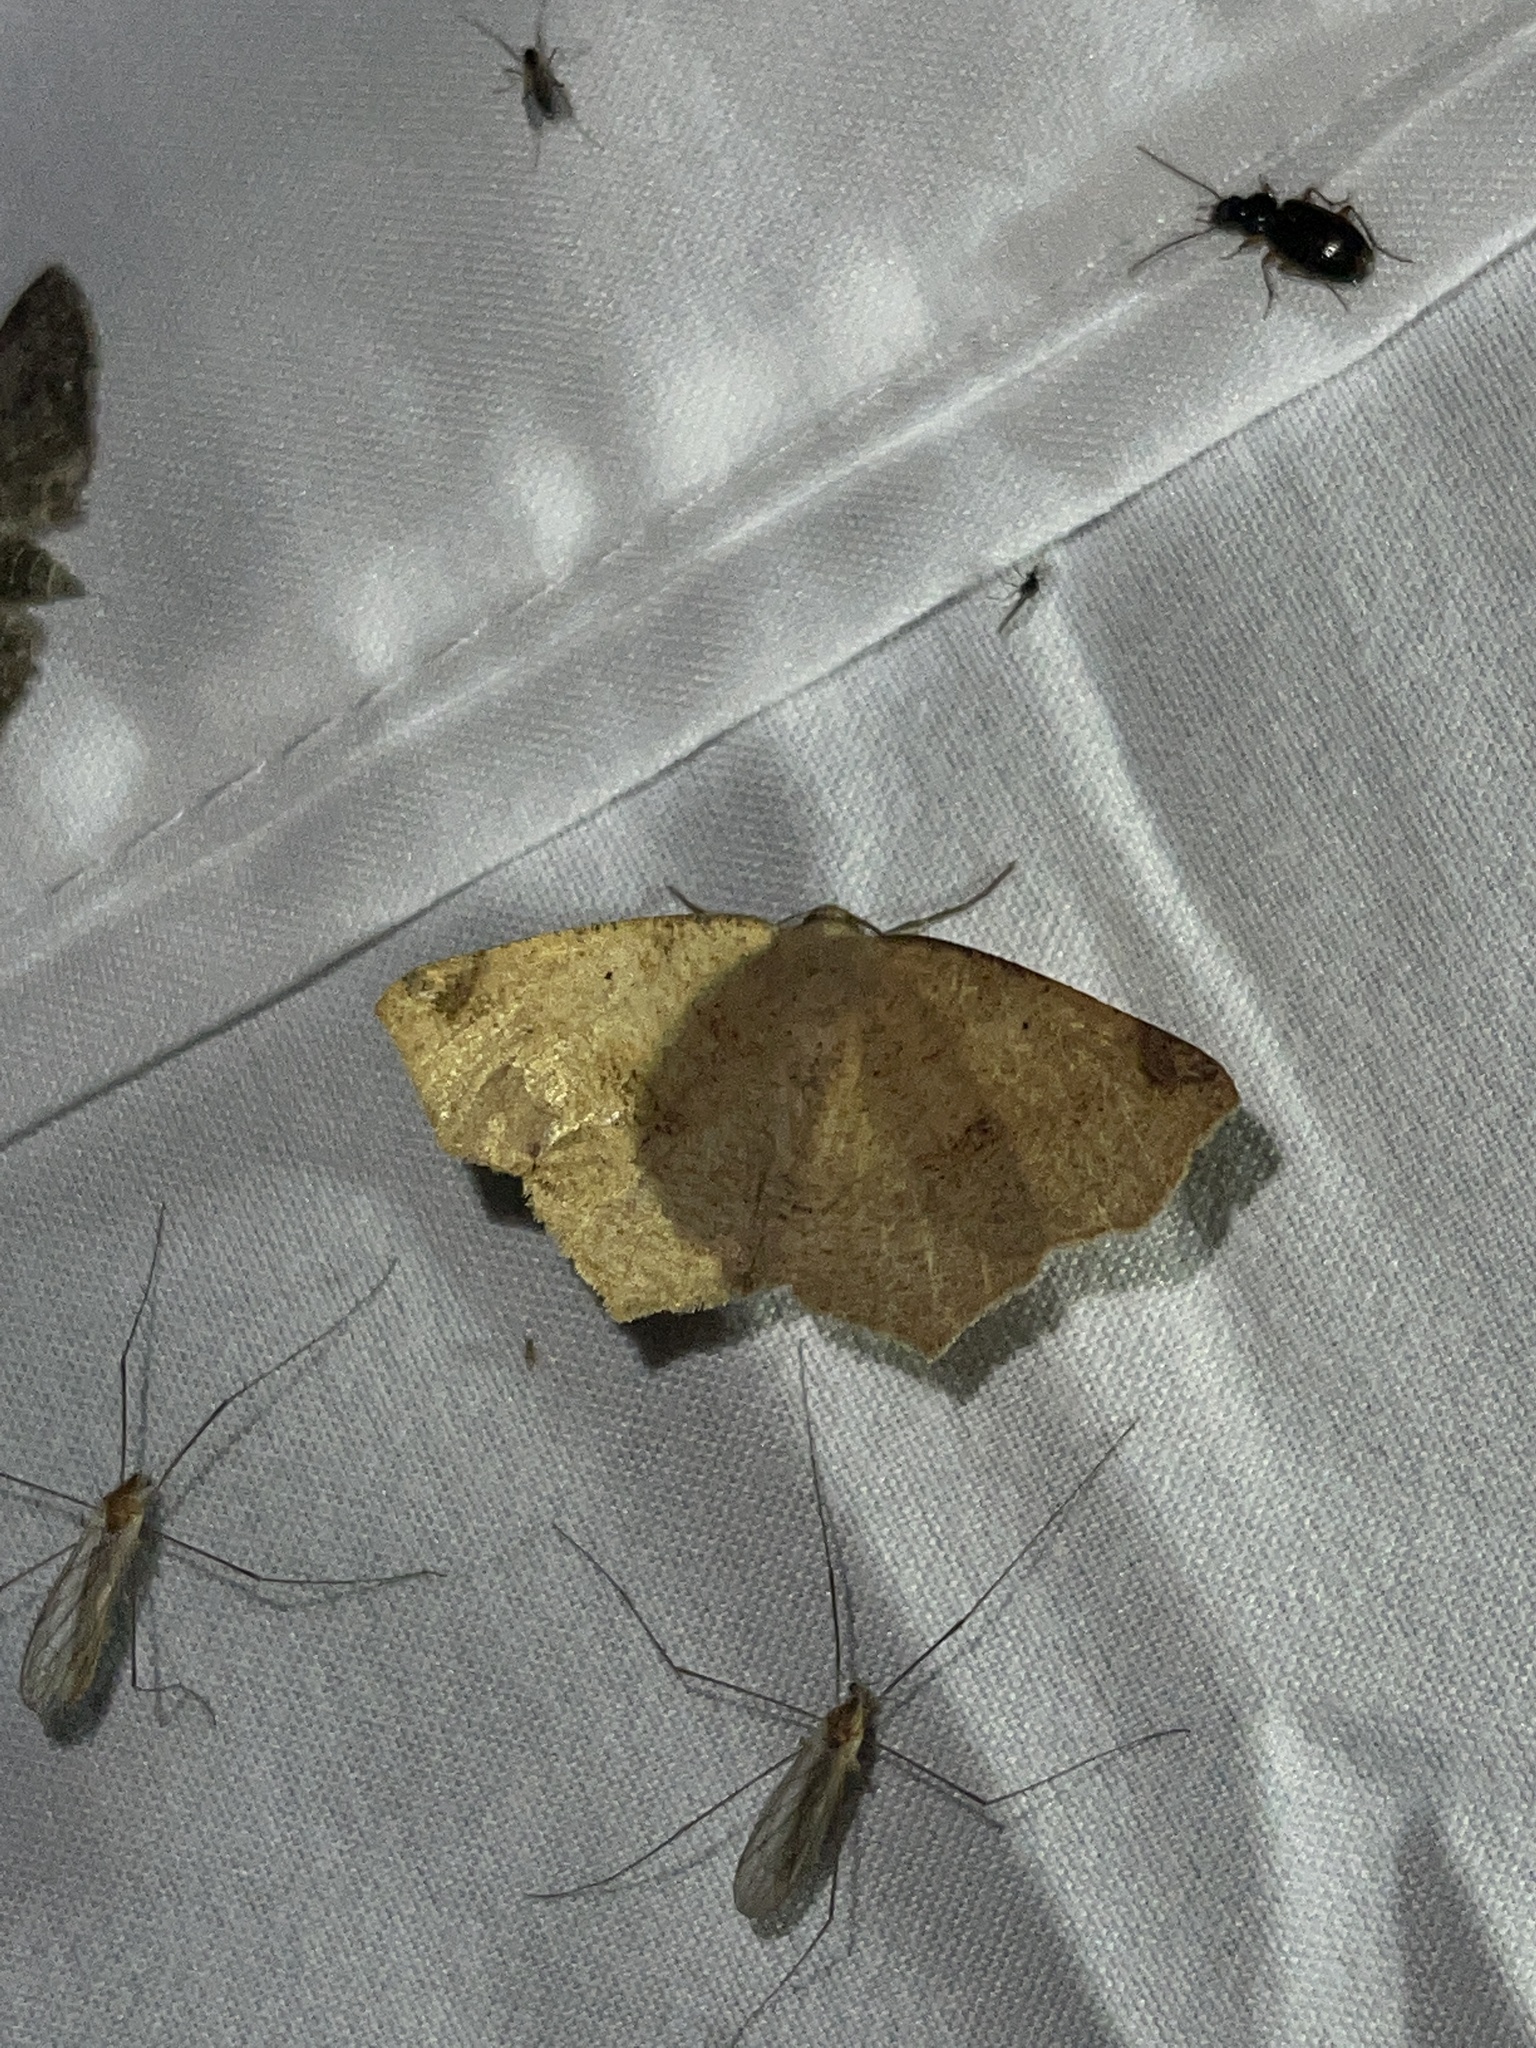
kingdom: Animalia
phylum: Arthropoda
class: Insecta
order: Lepidoptera
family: Geometridae
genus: Antepione
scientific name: Antepione thisoaria
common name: Variable antipione
